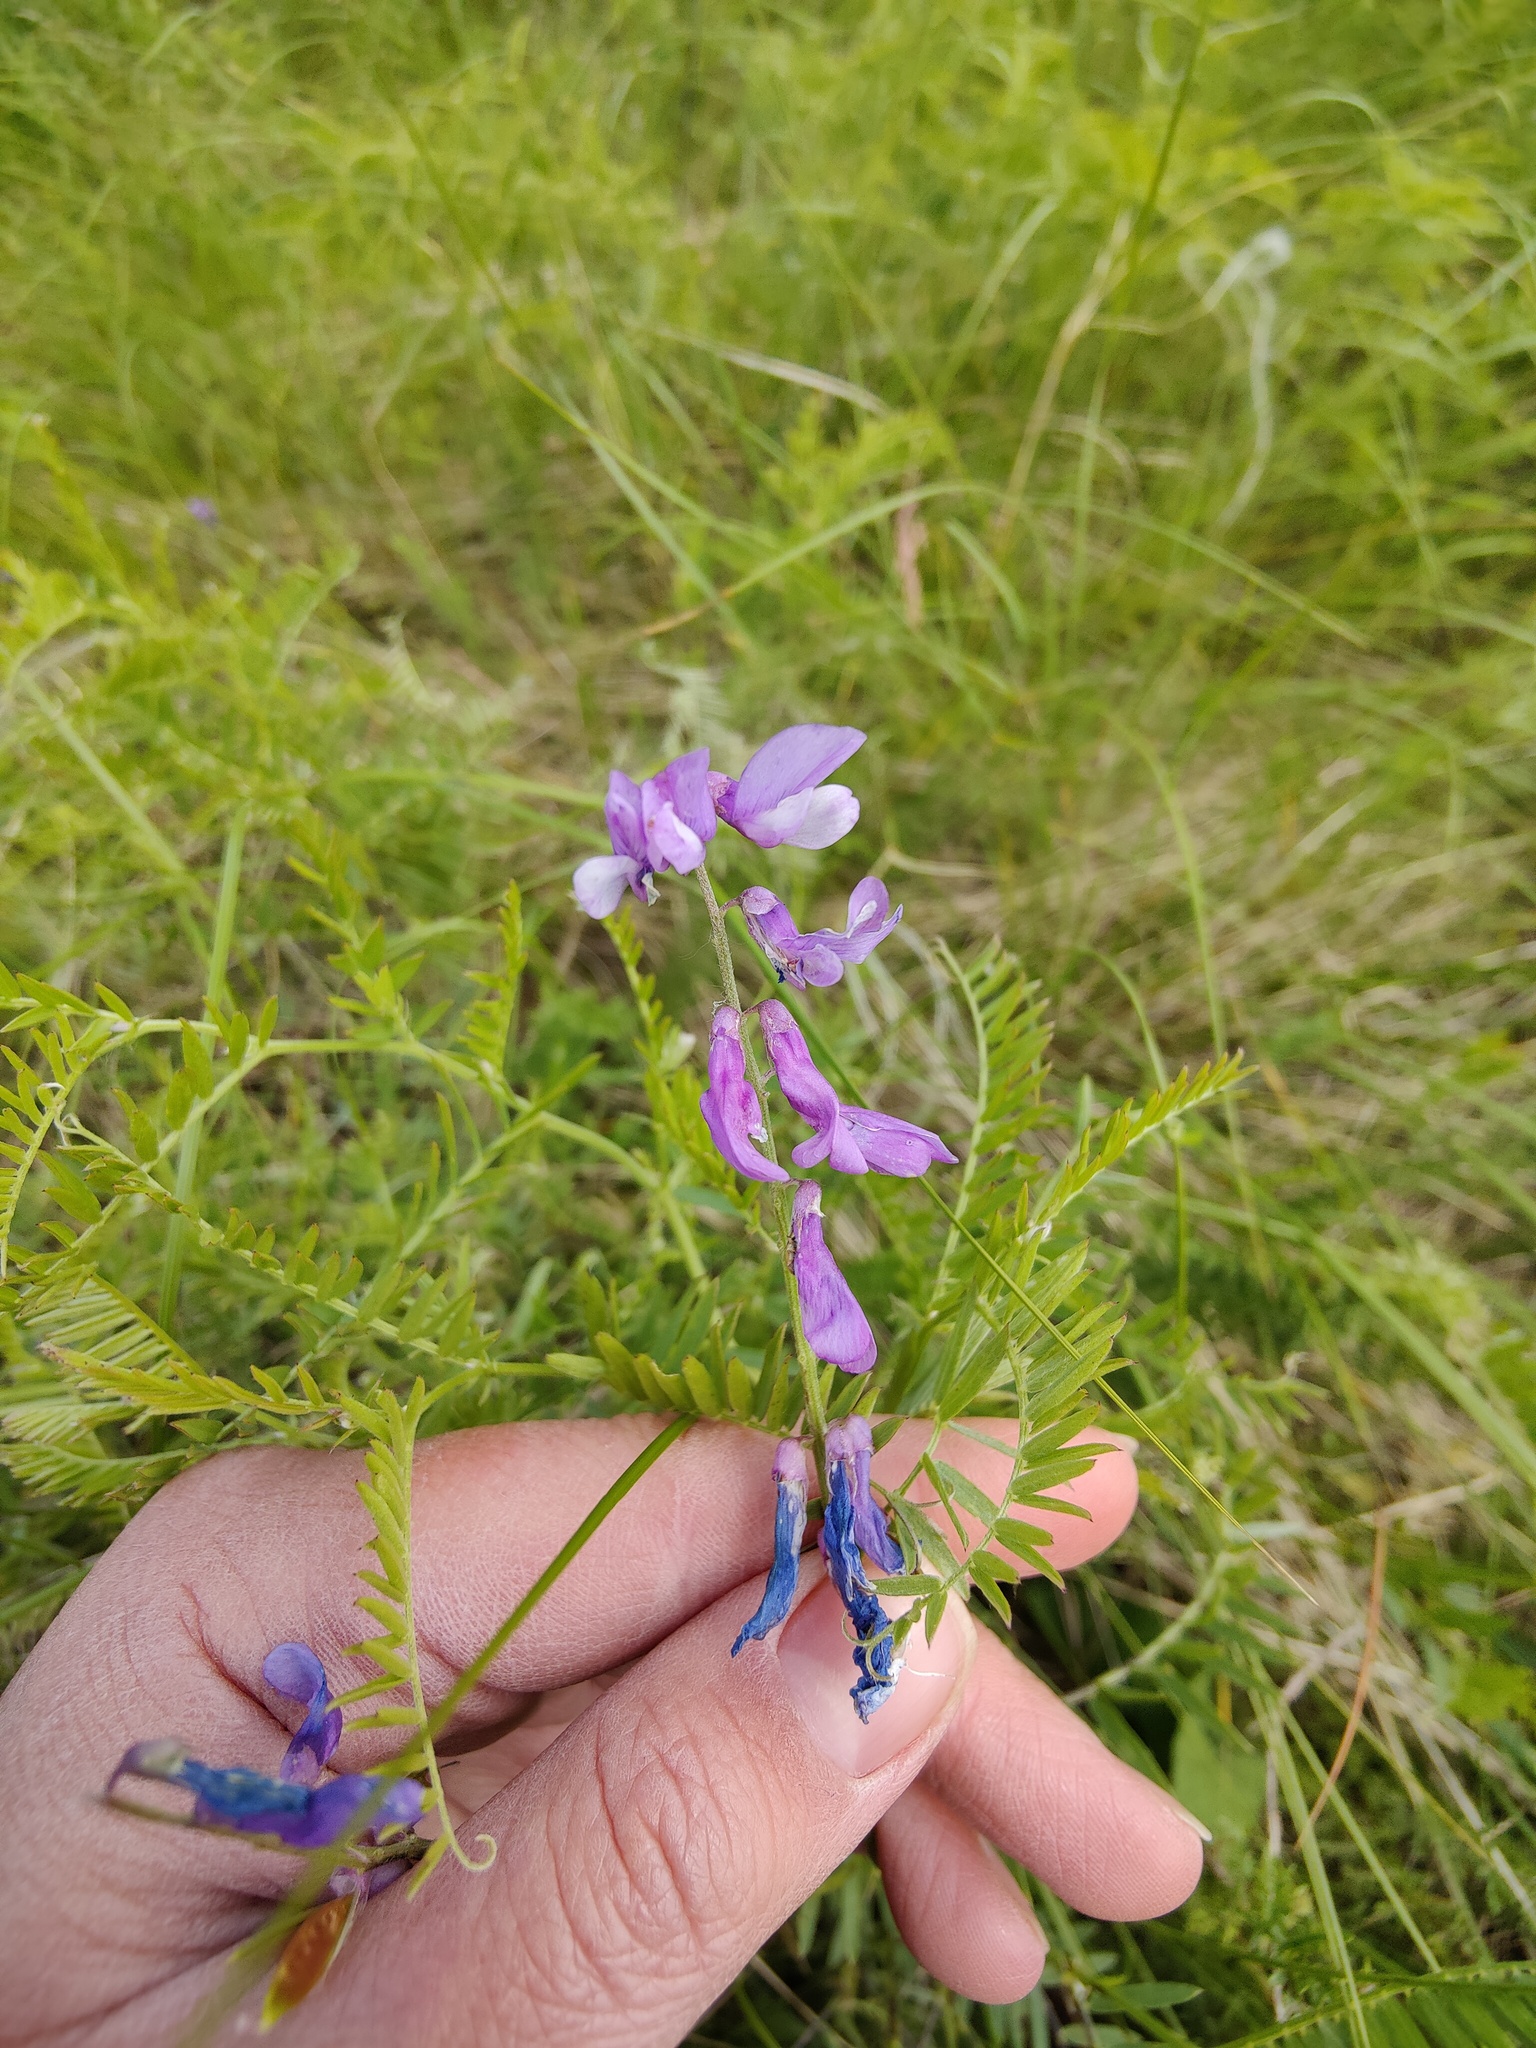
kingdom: Plantae
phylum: Tracheophyta
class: Magnoliopsida
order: Fabales
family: Fabaceae
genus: Vicia
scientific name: Vicia tenuifolia
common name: Fine-leaved vetch
